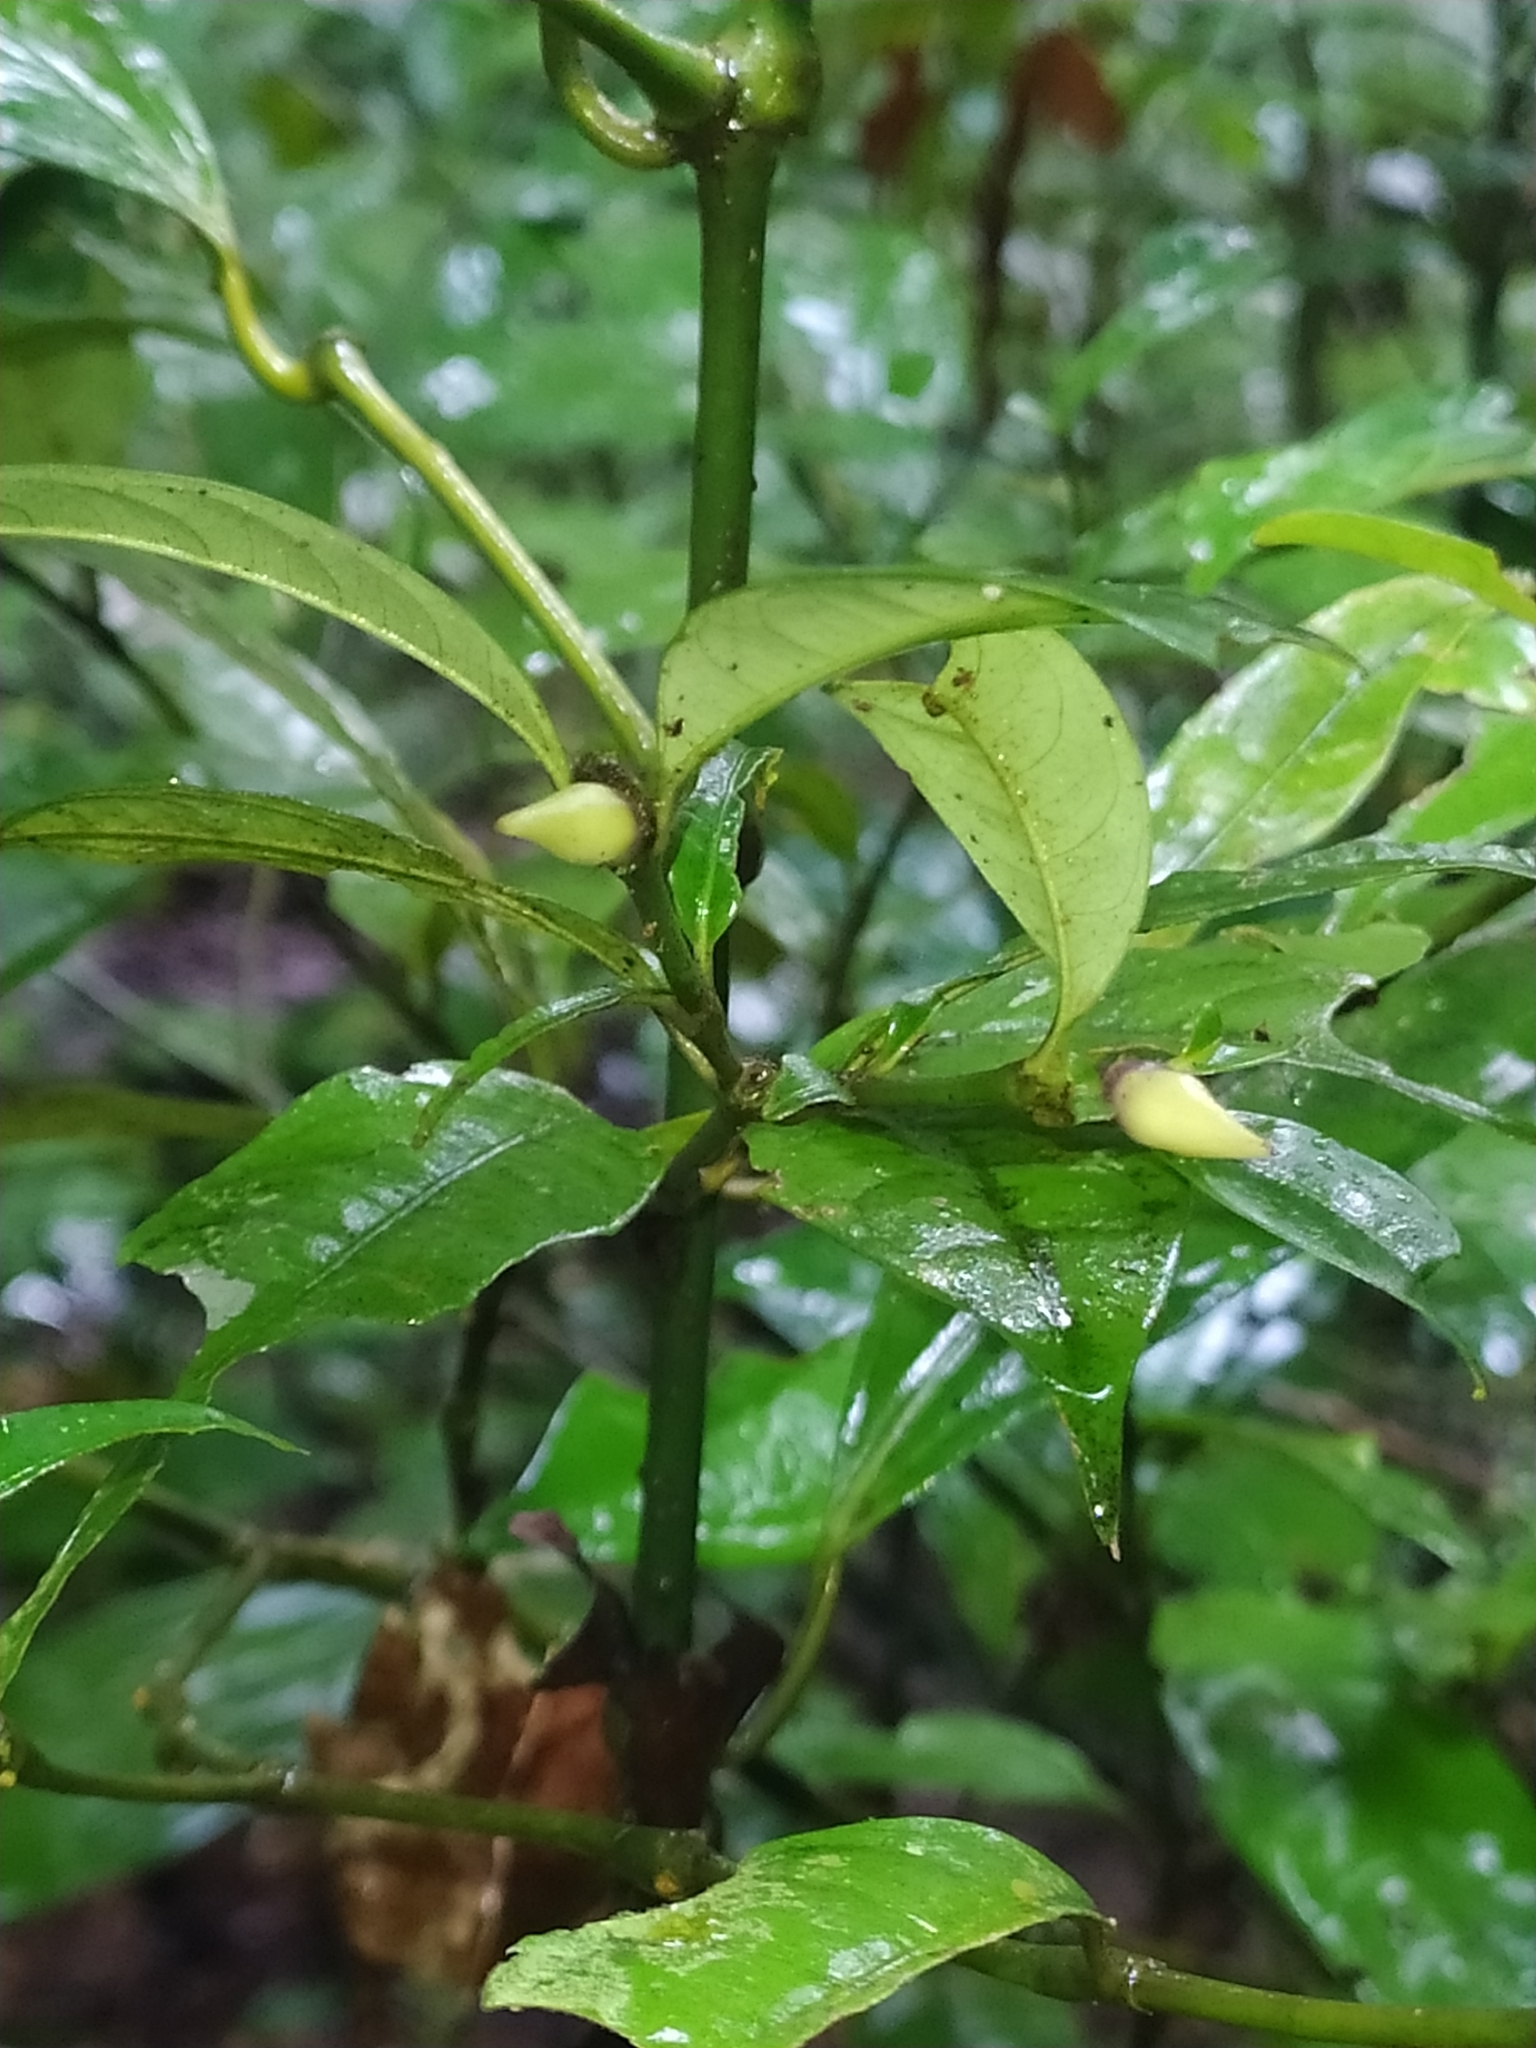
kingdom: Plantae
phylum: Tracheophyta
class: Magnoliopsida
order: Gentianales
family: Rubiaceae
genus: Palicourea
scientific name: Palicourea oblonga
